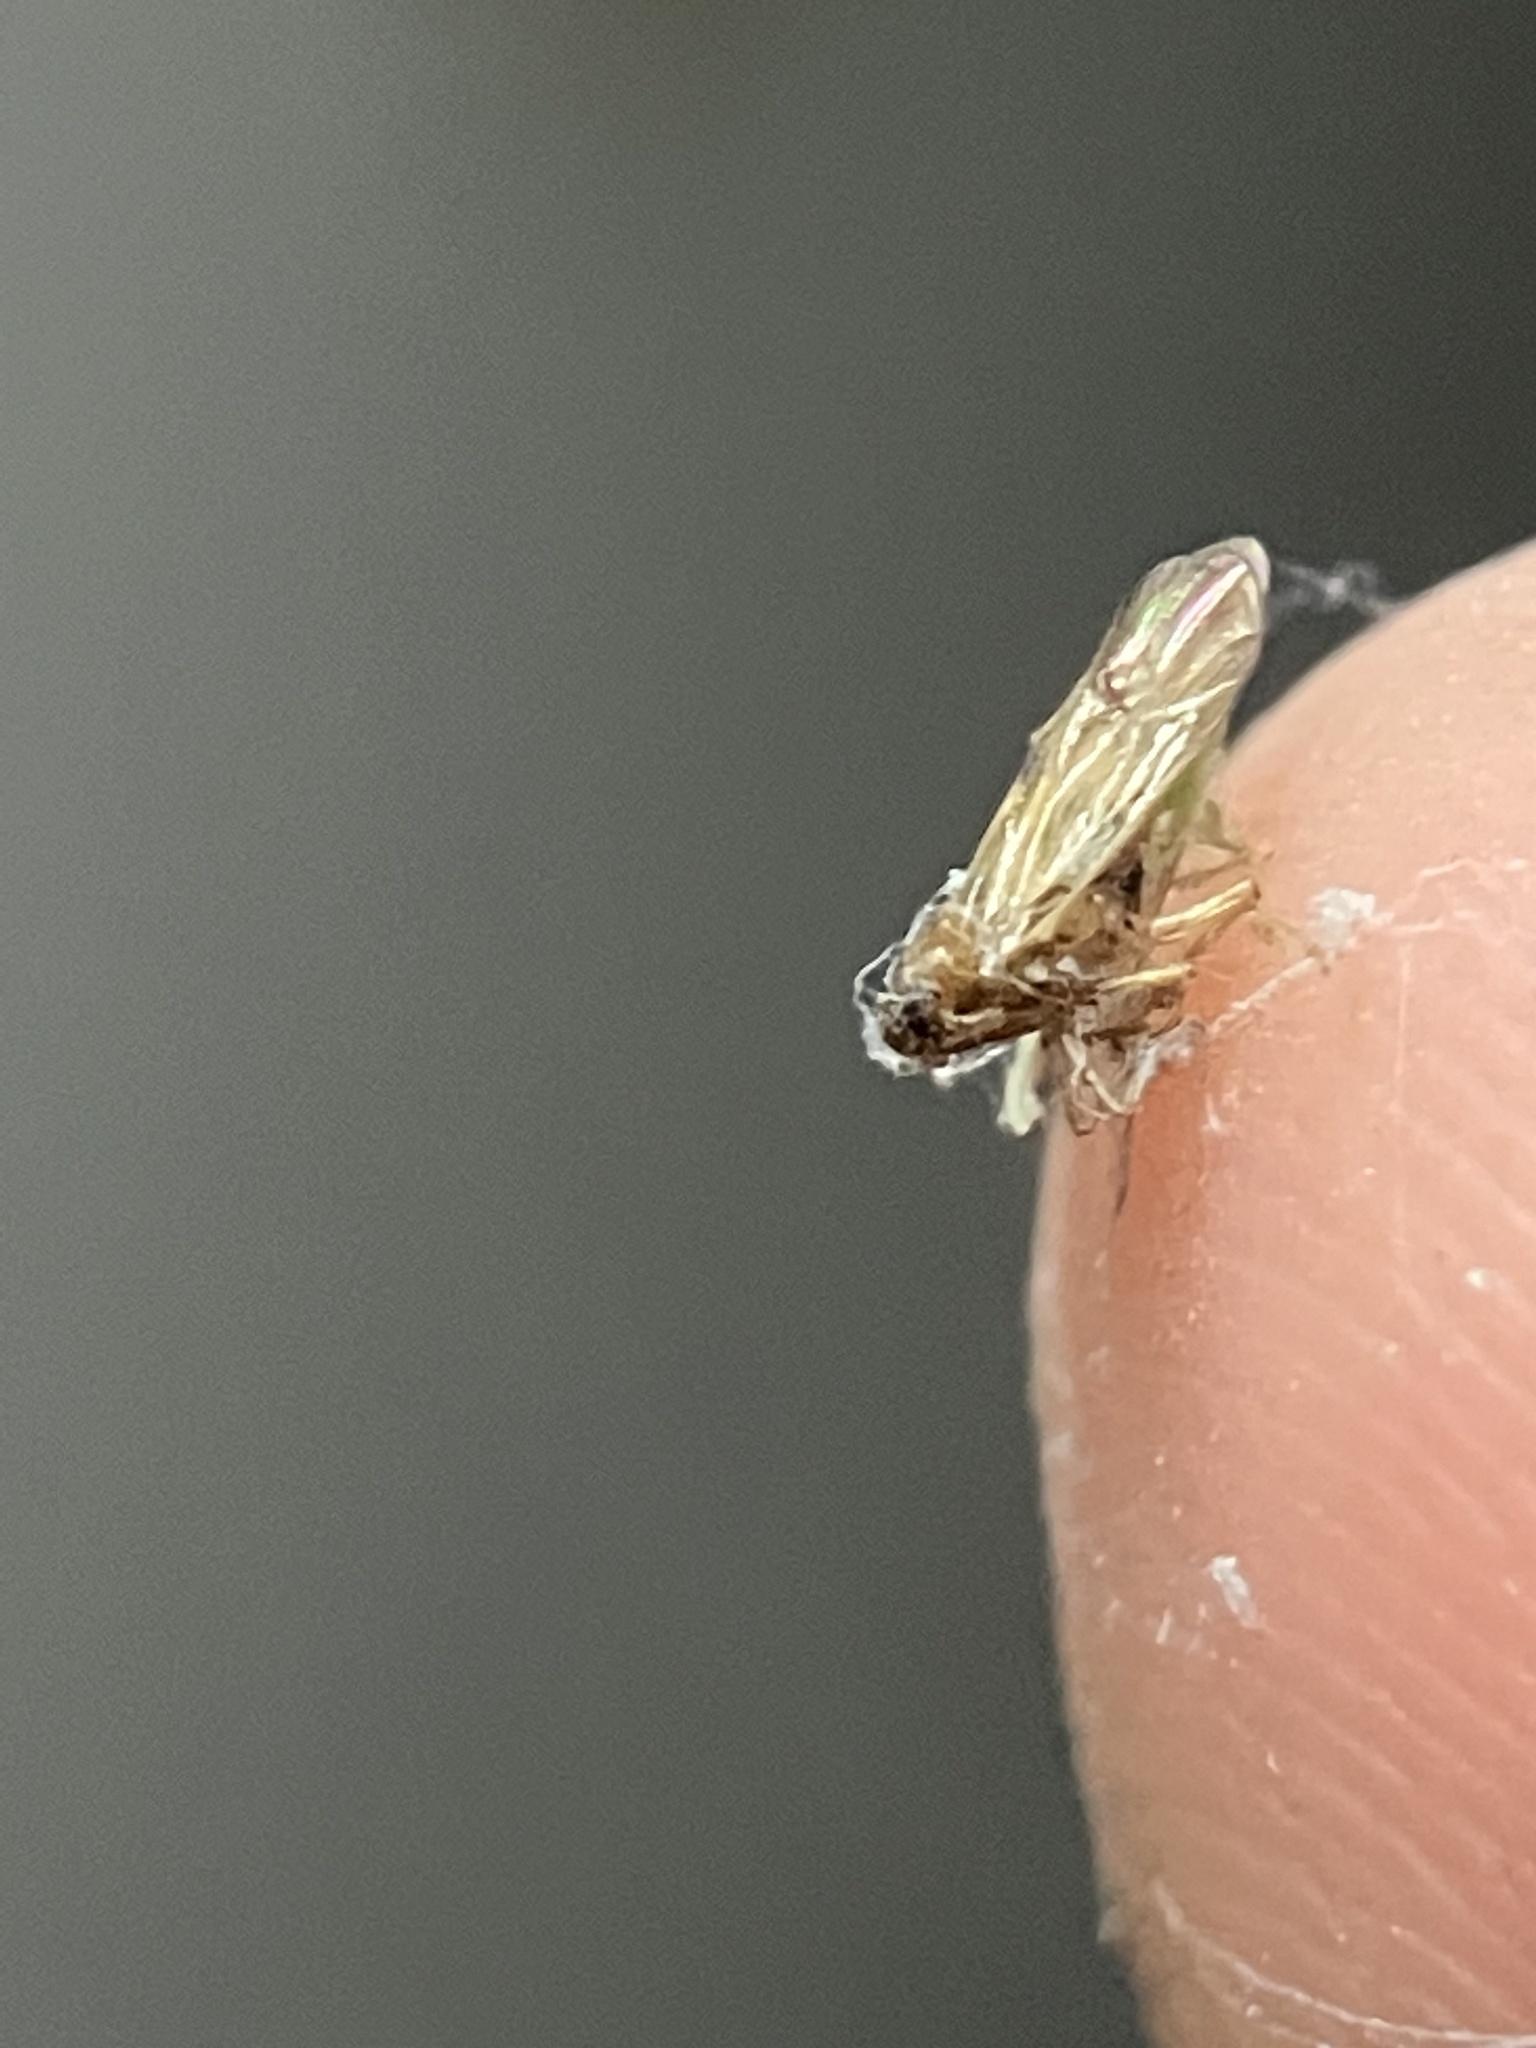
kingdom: Animalia
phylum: Arthropoda
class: Insecta
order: Hemiptera
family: Delphacidae
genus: Nilaparvata
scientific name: Nilaparvata lugens
